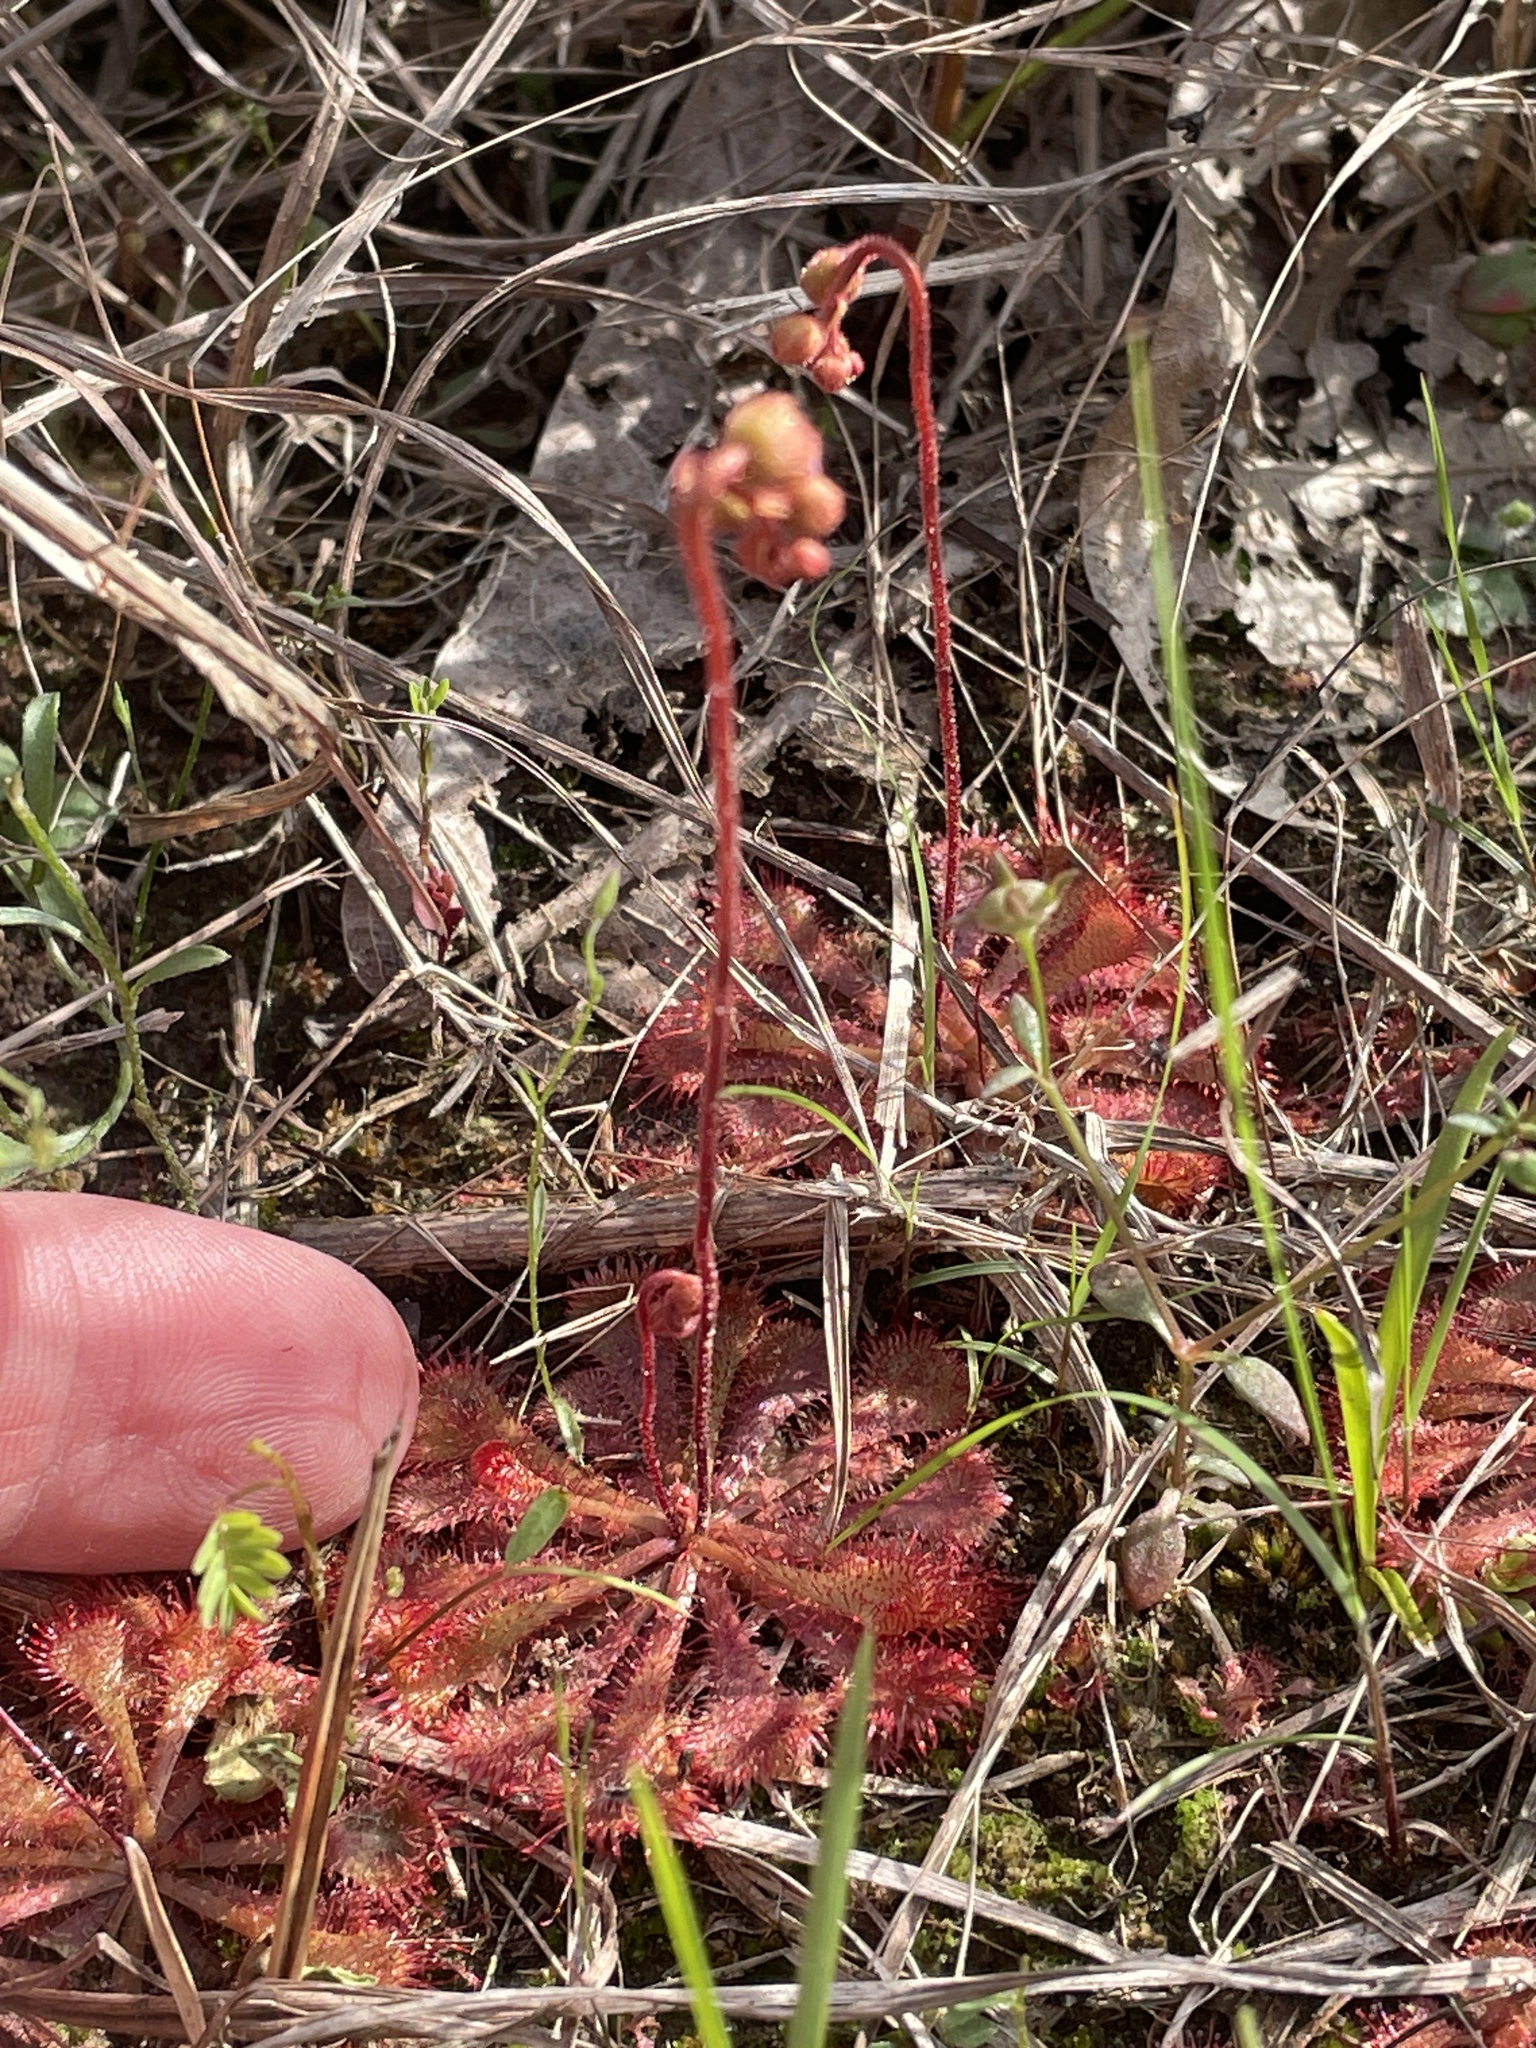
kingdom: Plantae
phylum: Tracheophyta
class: Magnoliopsida
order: Caryophyllales
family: Droseraceae
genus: Drosera
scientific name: Drosera brevifolia
